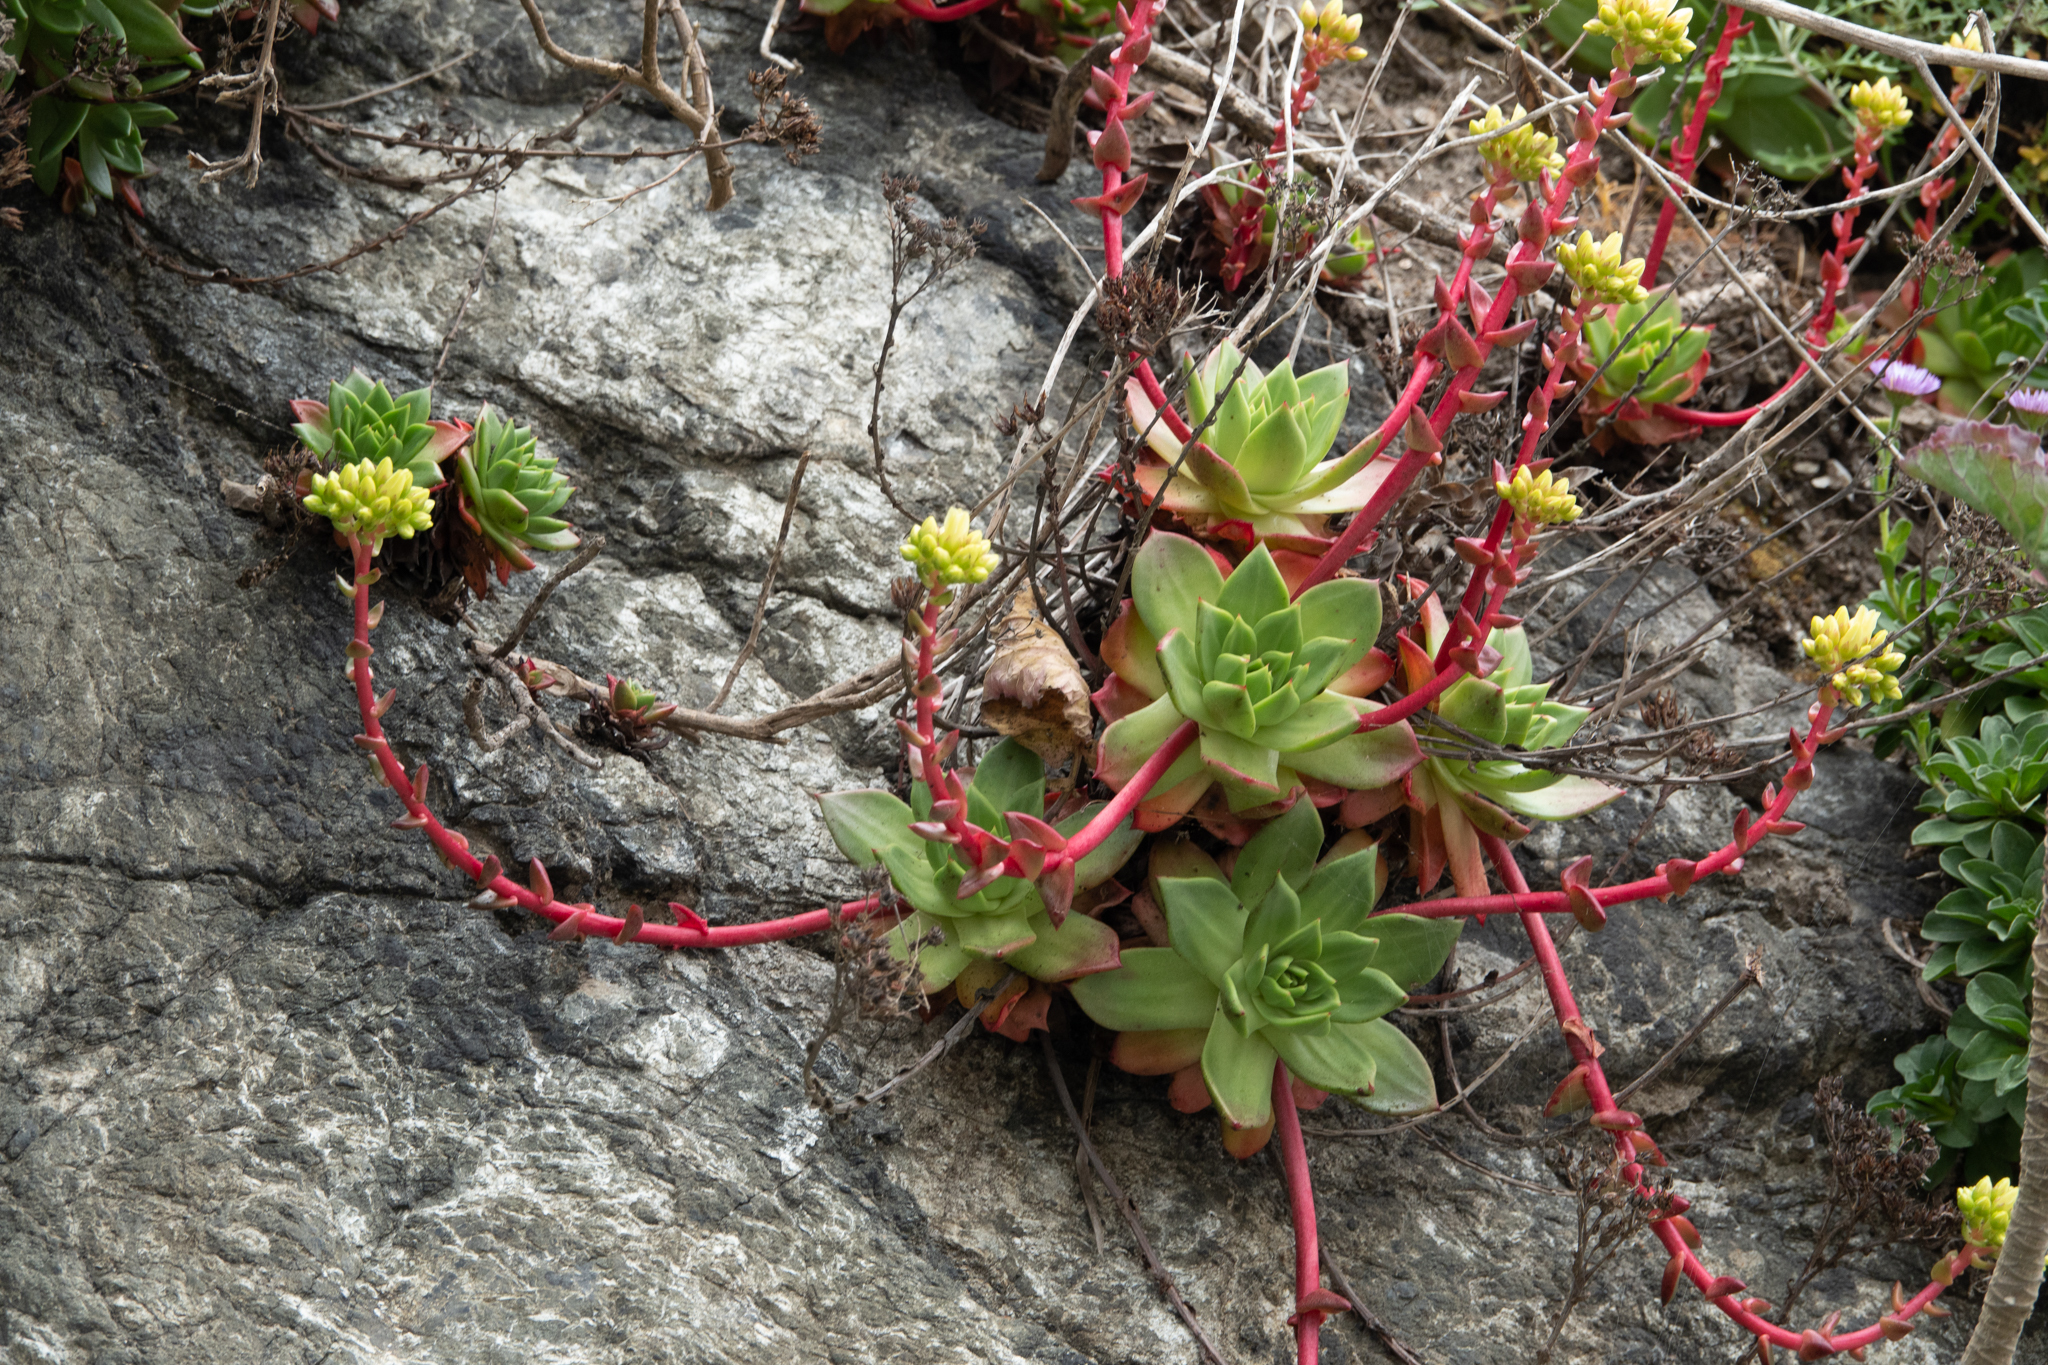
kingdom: Plantae
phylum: Tracheophyta
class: Magnoliopsida
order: Saxifragales
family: Crassulaceae
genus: Dudleya
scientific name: Dudleya farinosa
